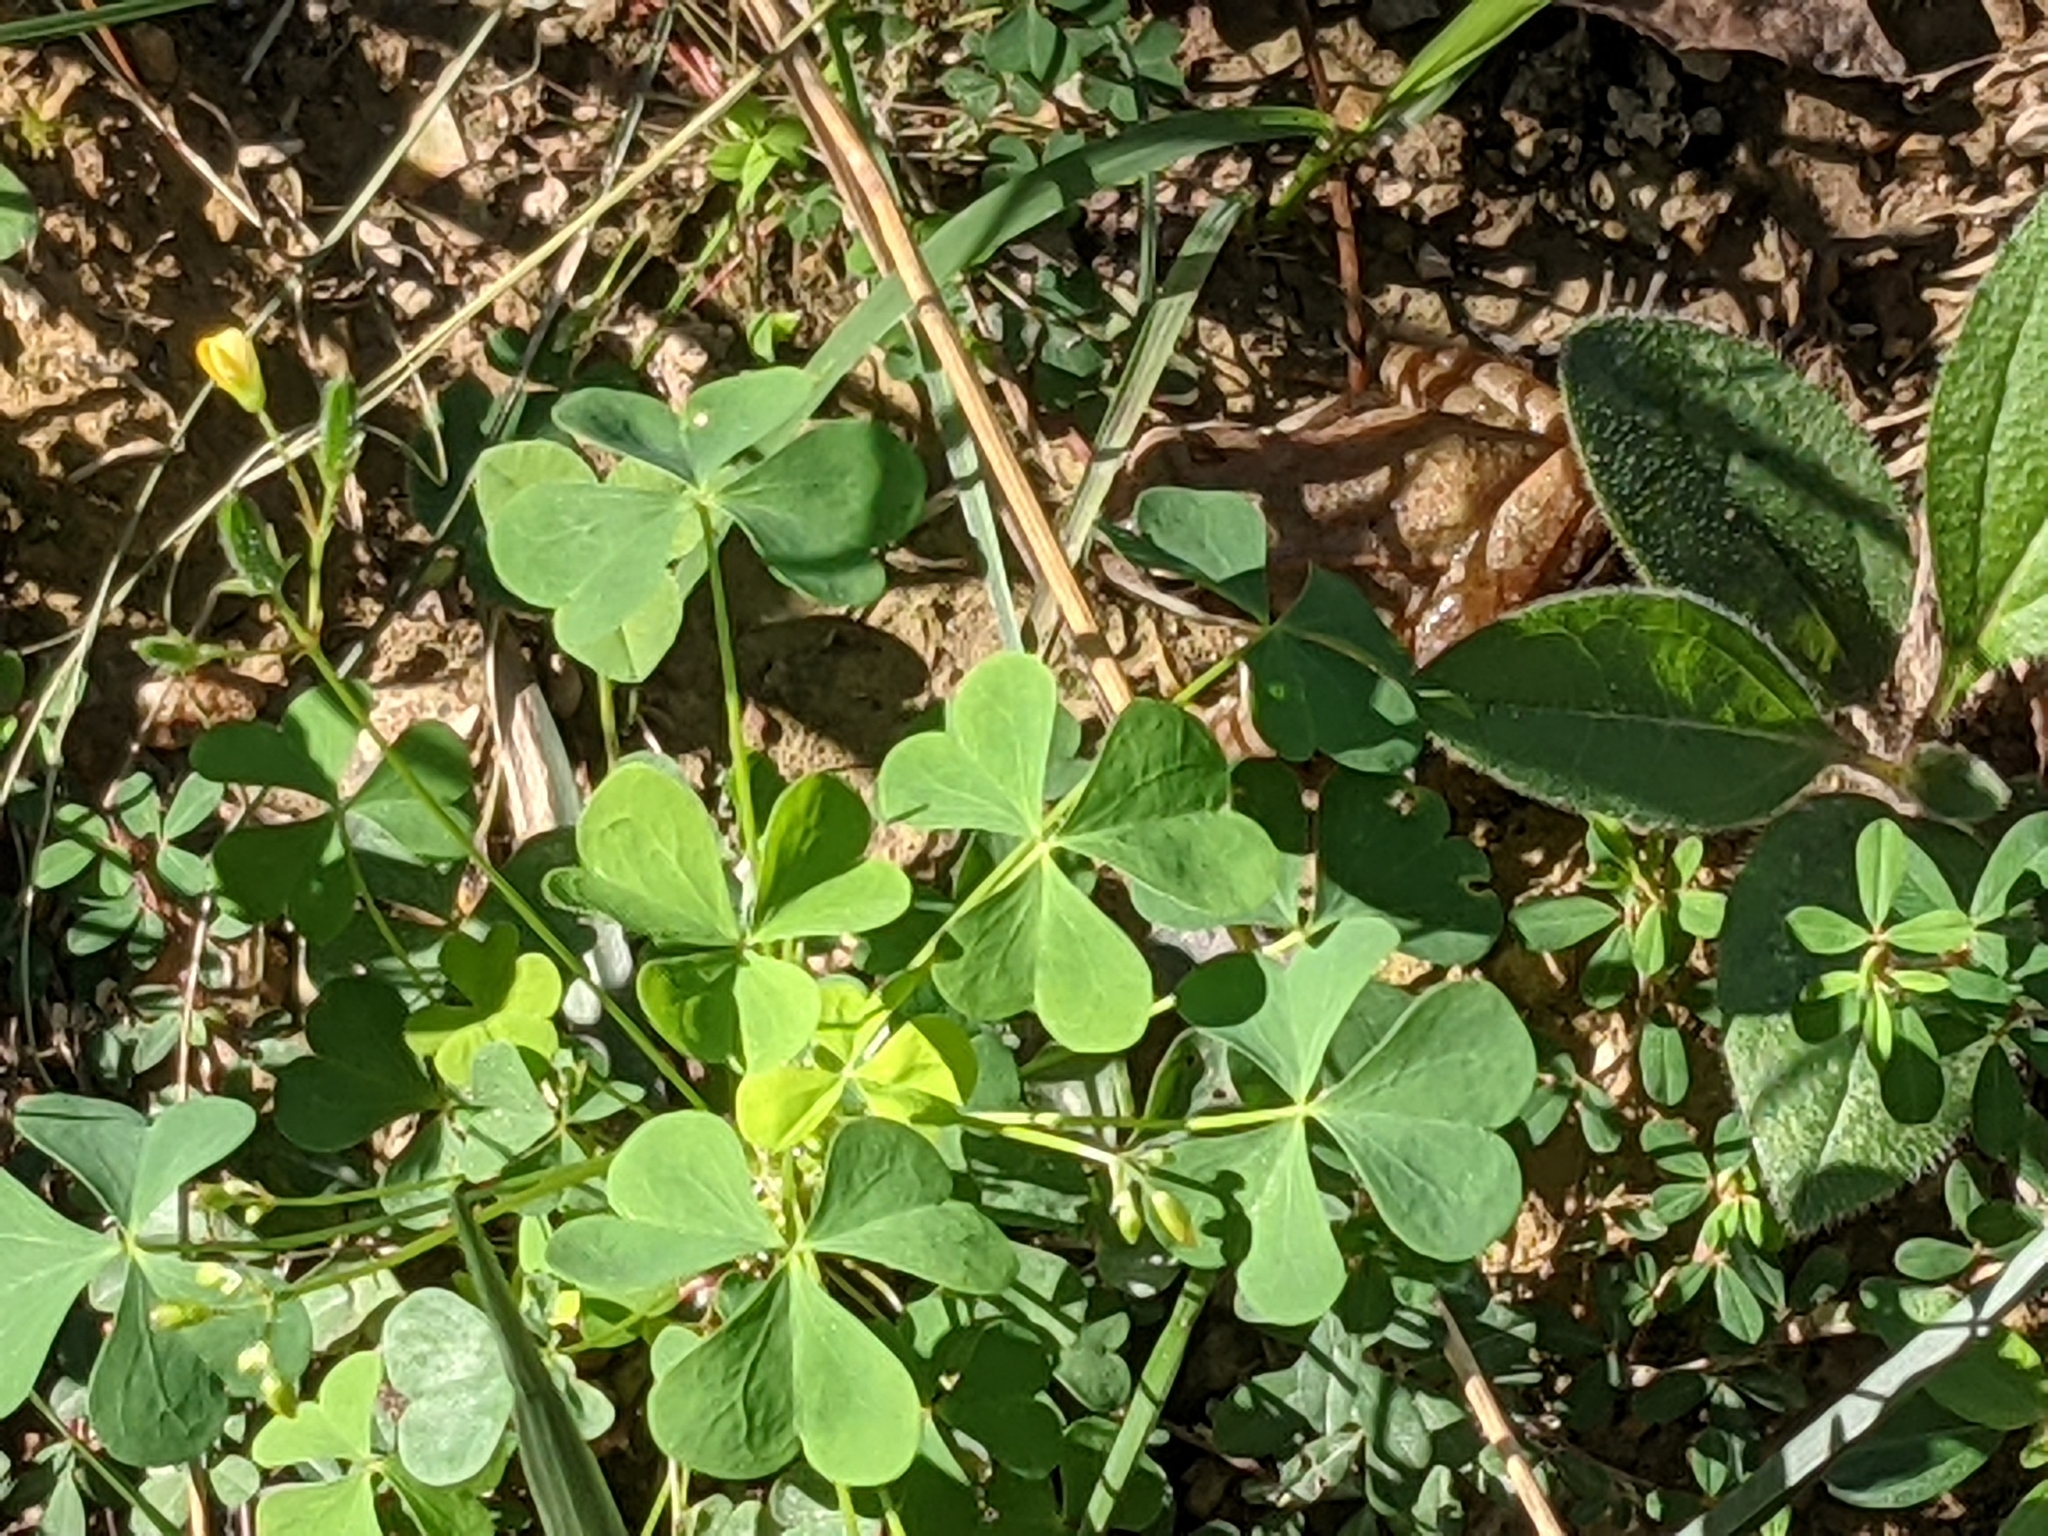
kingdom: Animalia
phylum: Chordata
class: Amphibia
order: Anura
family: Ranidae
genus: Lithobates
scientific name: Lithobates sylvaticus
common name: Wood frog
